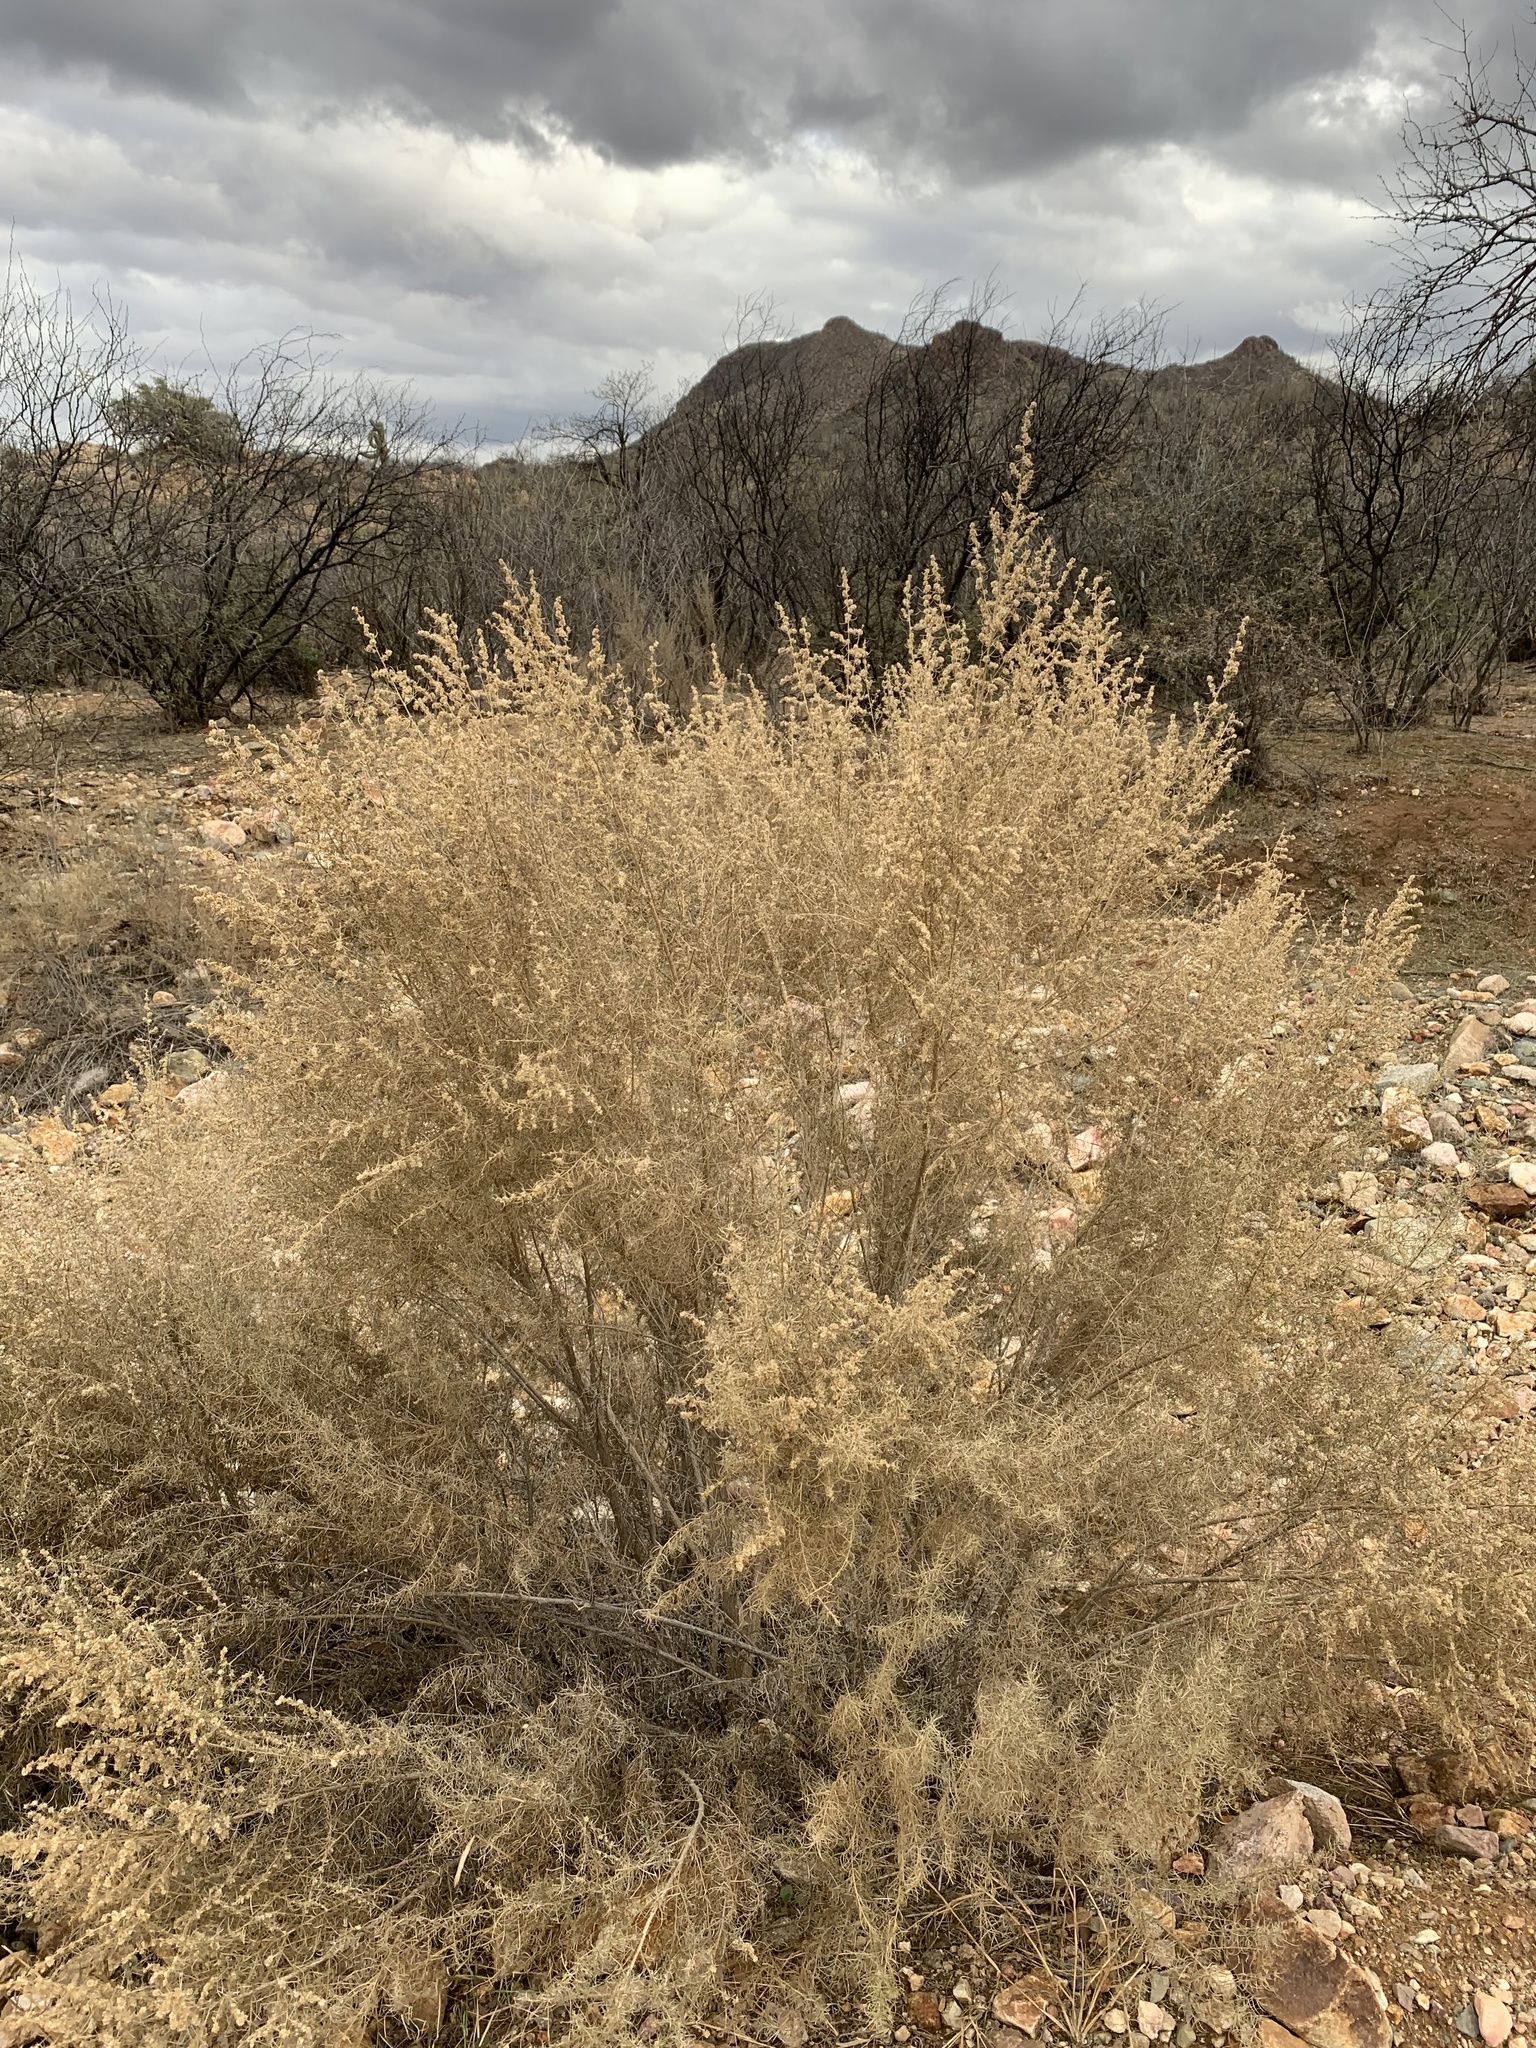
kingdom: Plantae
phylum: Tracheophyta
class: Magnoliopsida
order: Asterales
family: Asteraceae
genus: Ambrosia
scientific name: Ambrosia monogyra
